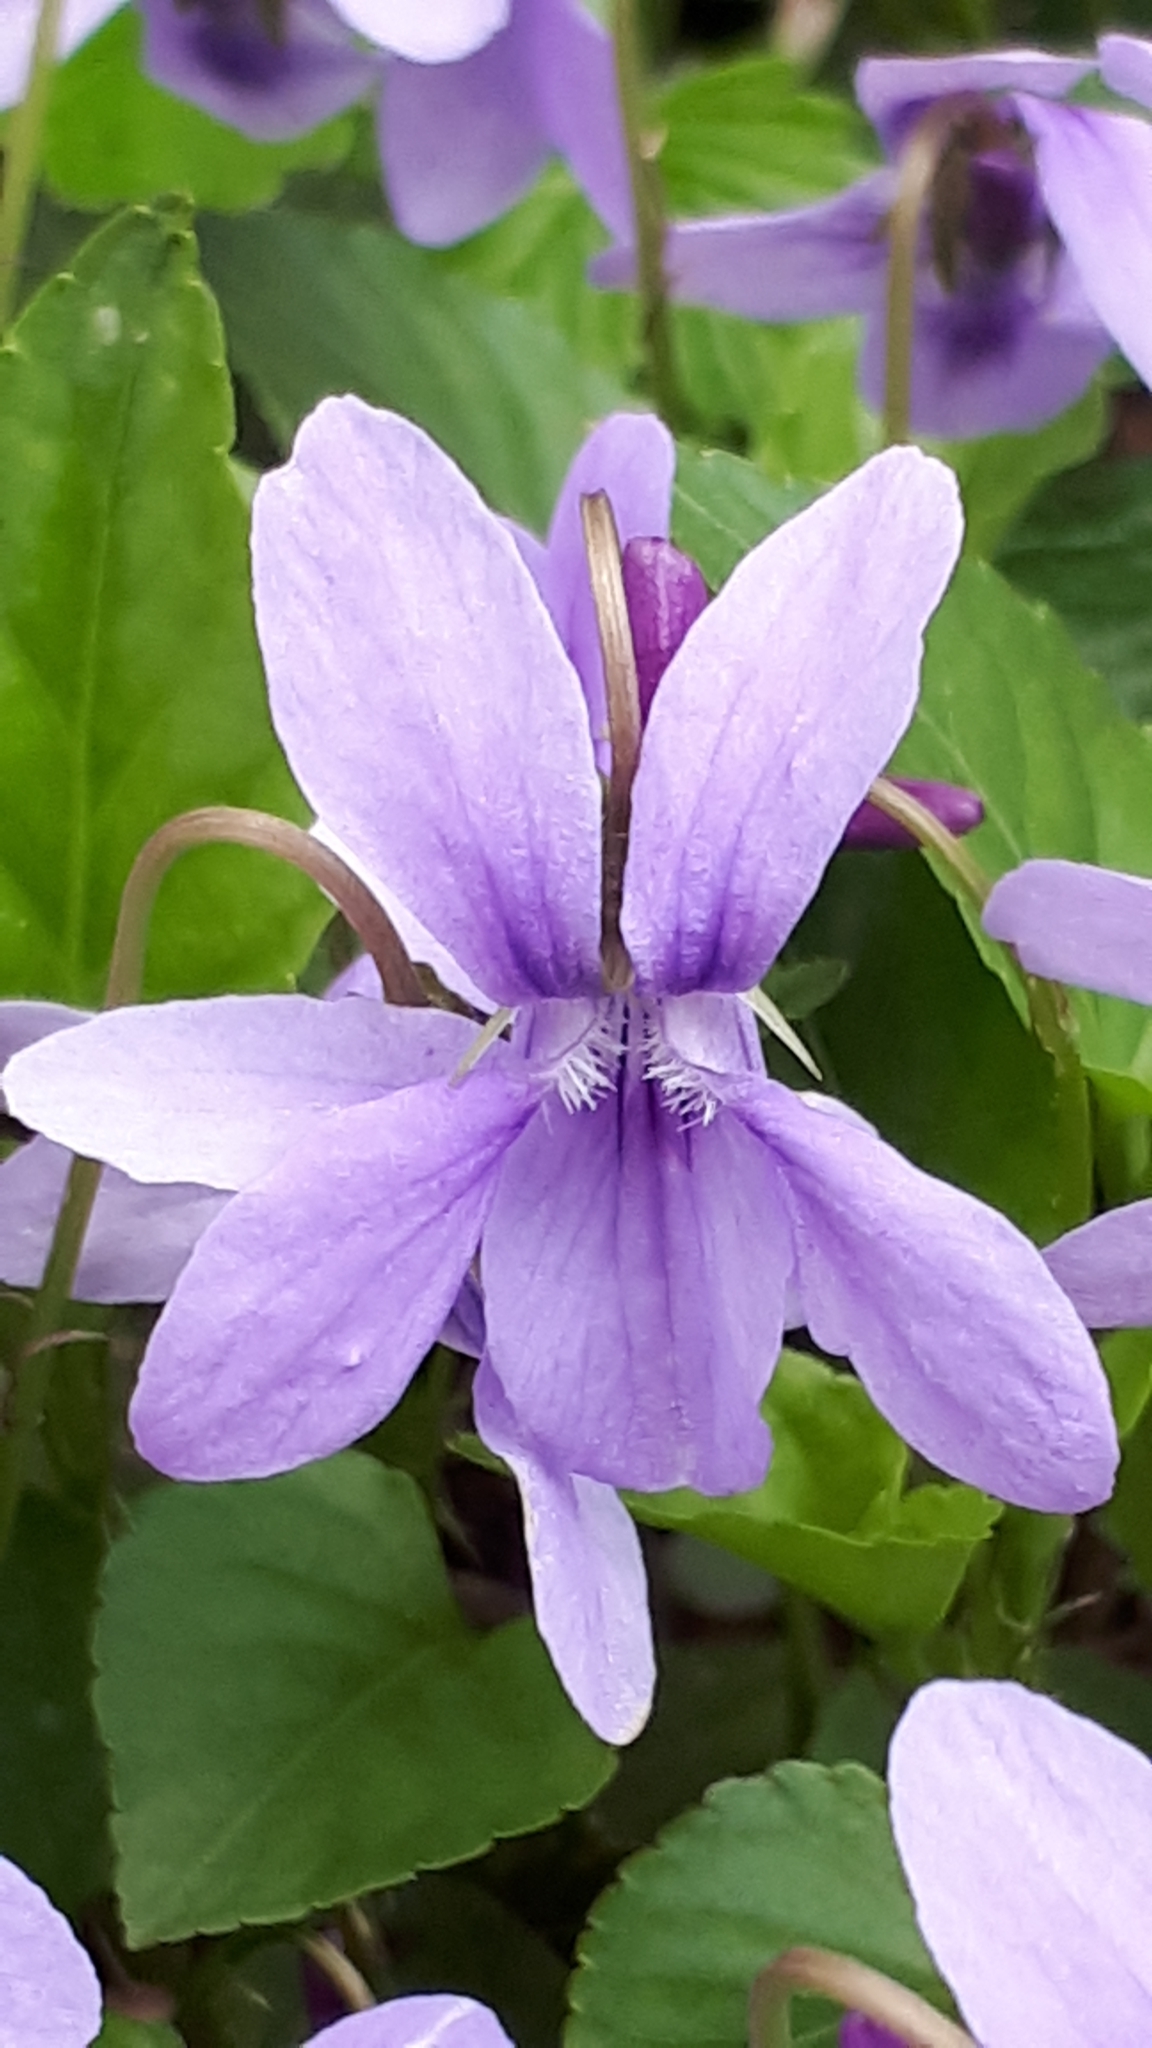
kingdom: Plantae
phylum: Tracheophyta
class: Magnoliopsida
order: Malpighiales
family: Violaceae
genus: Viola
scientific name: Viola reichenbachiana
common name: Early dog-violet
